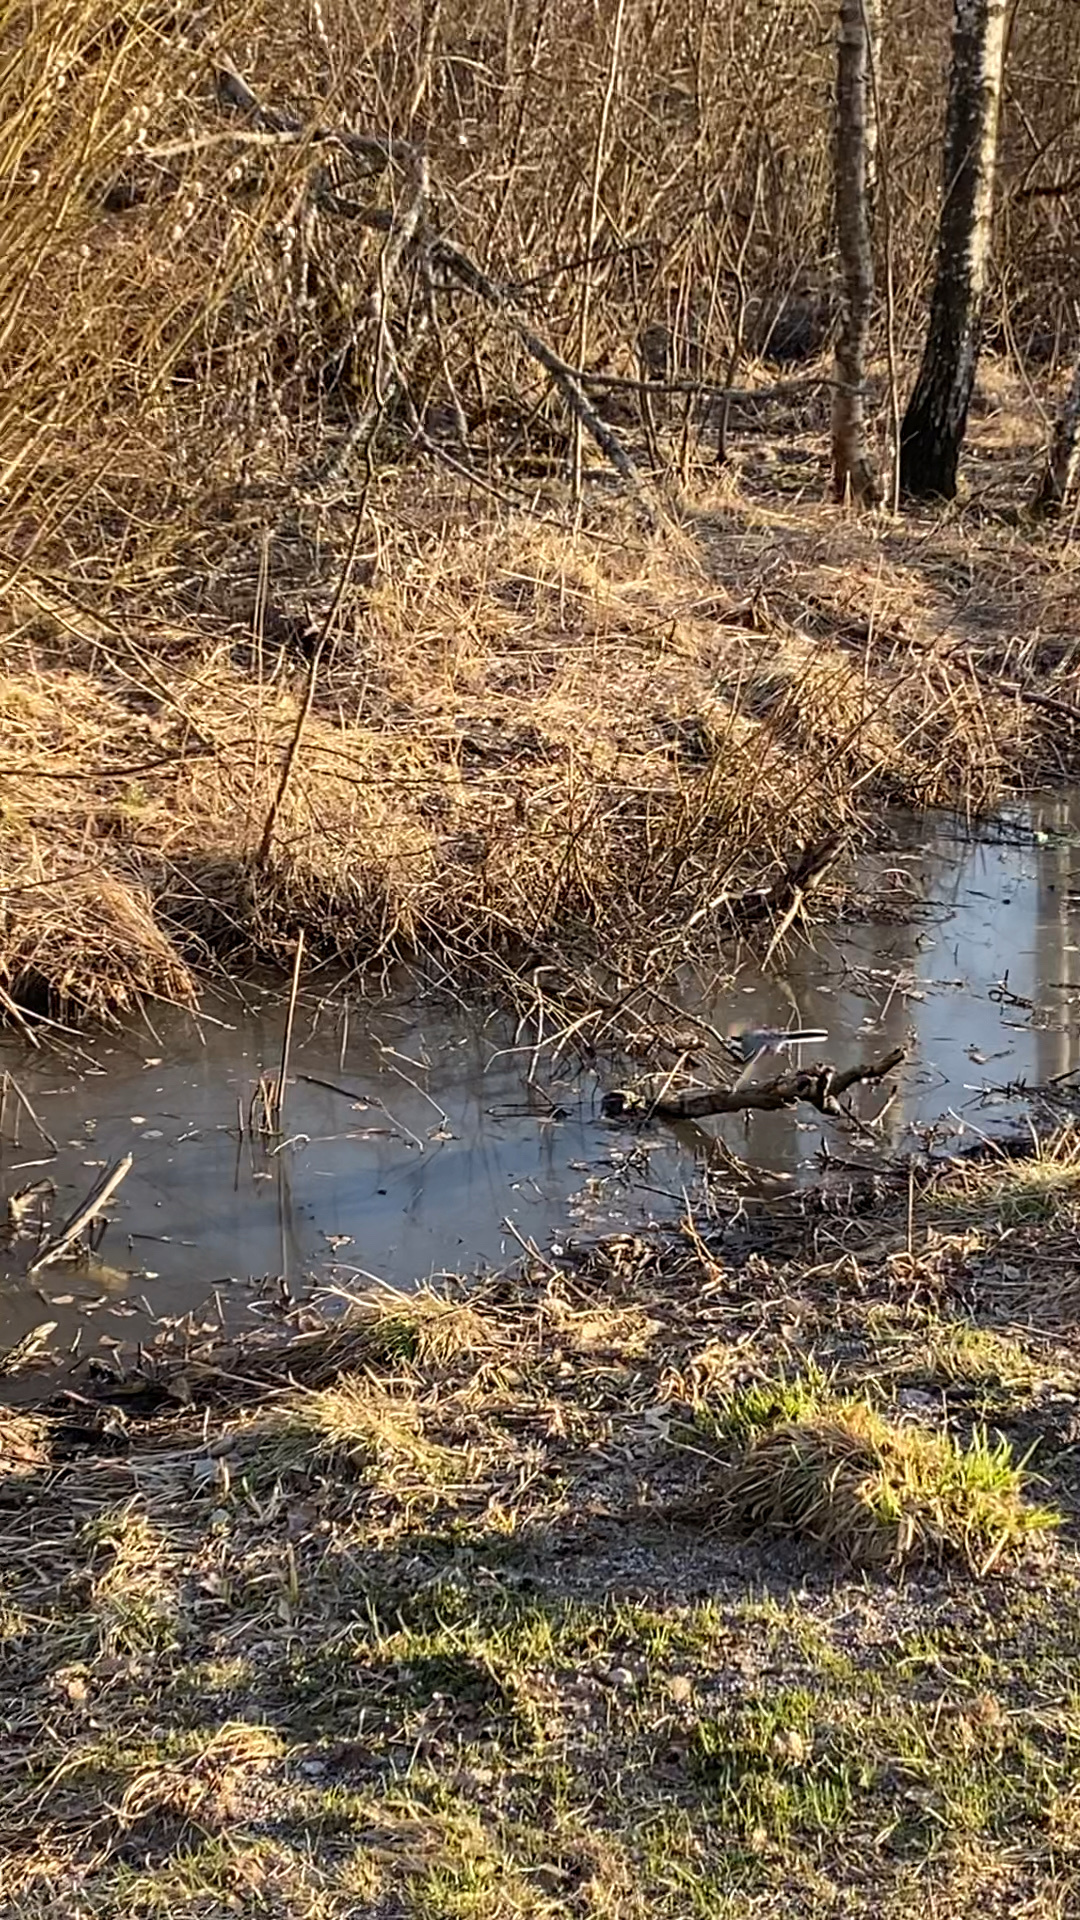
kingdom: Animalia
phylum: Chordata
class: Aves
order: Passeriformes
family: Motacillidae
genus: Motacilla
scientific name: Motacilla alba
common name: White wagtail
